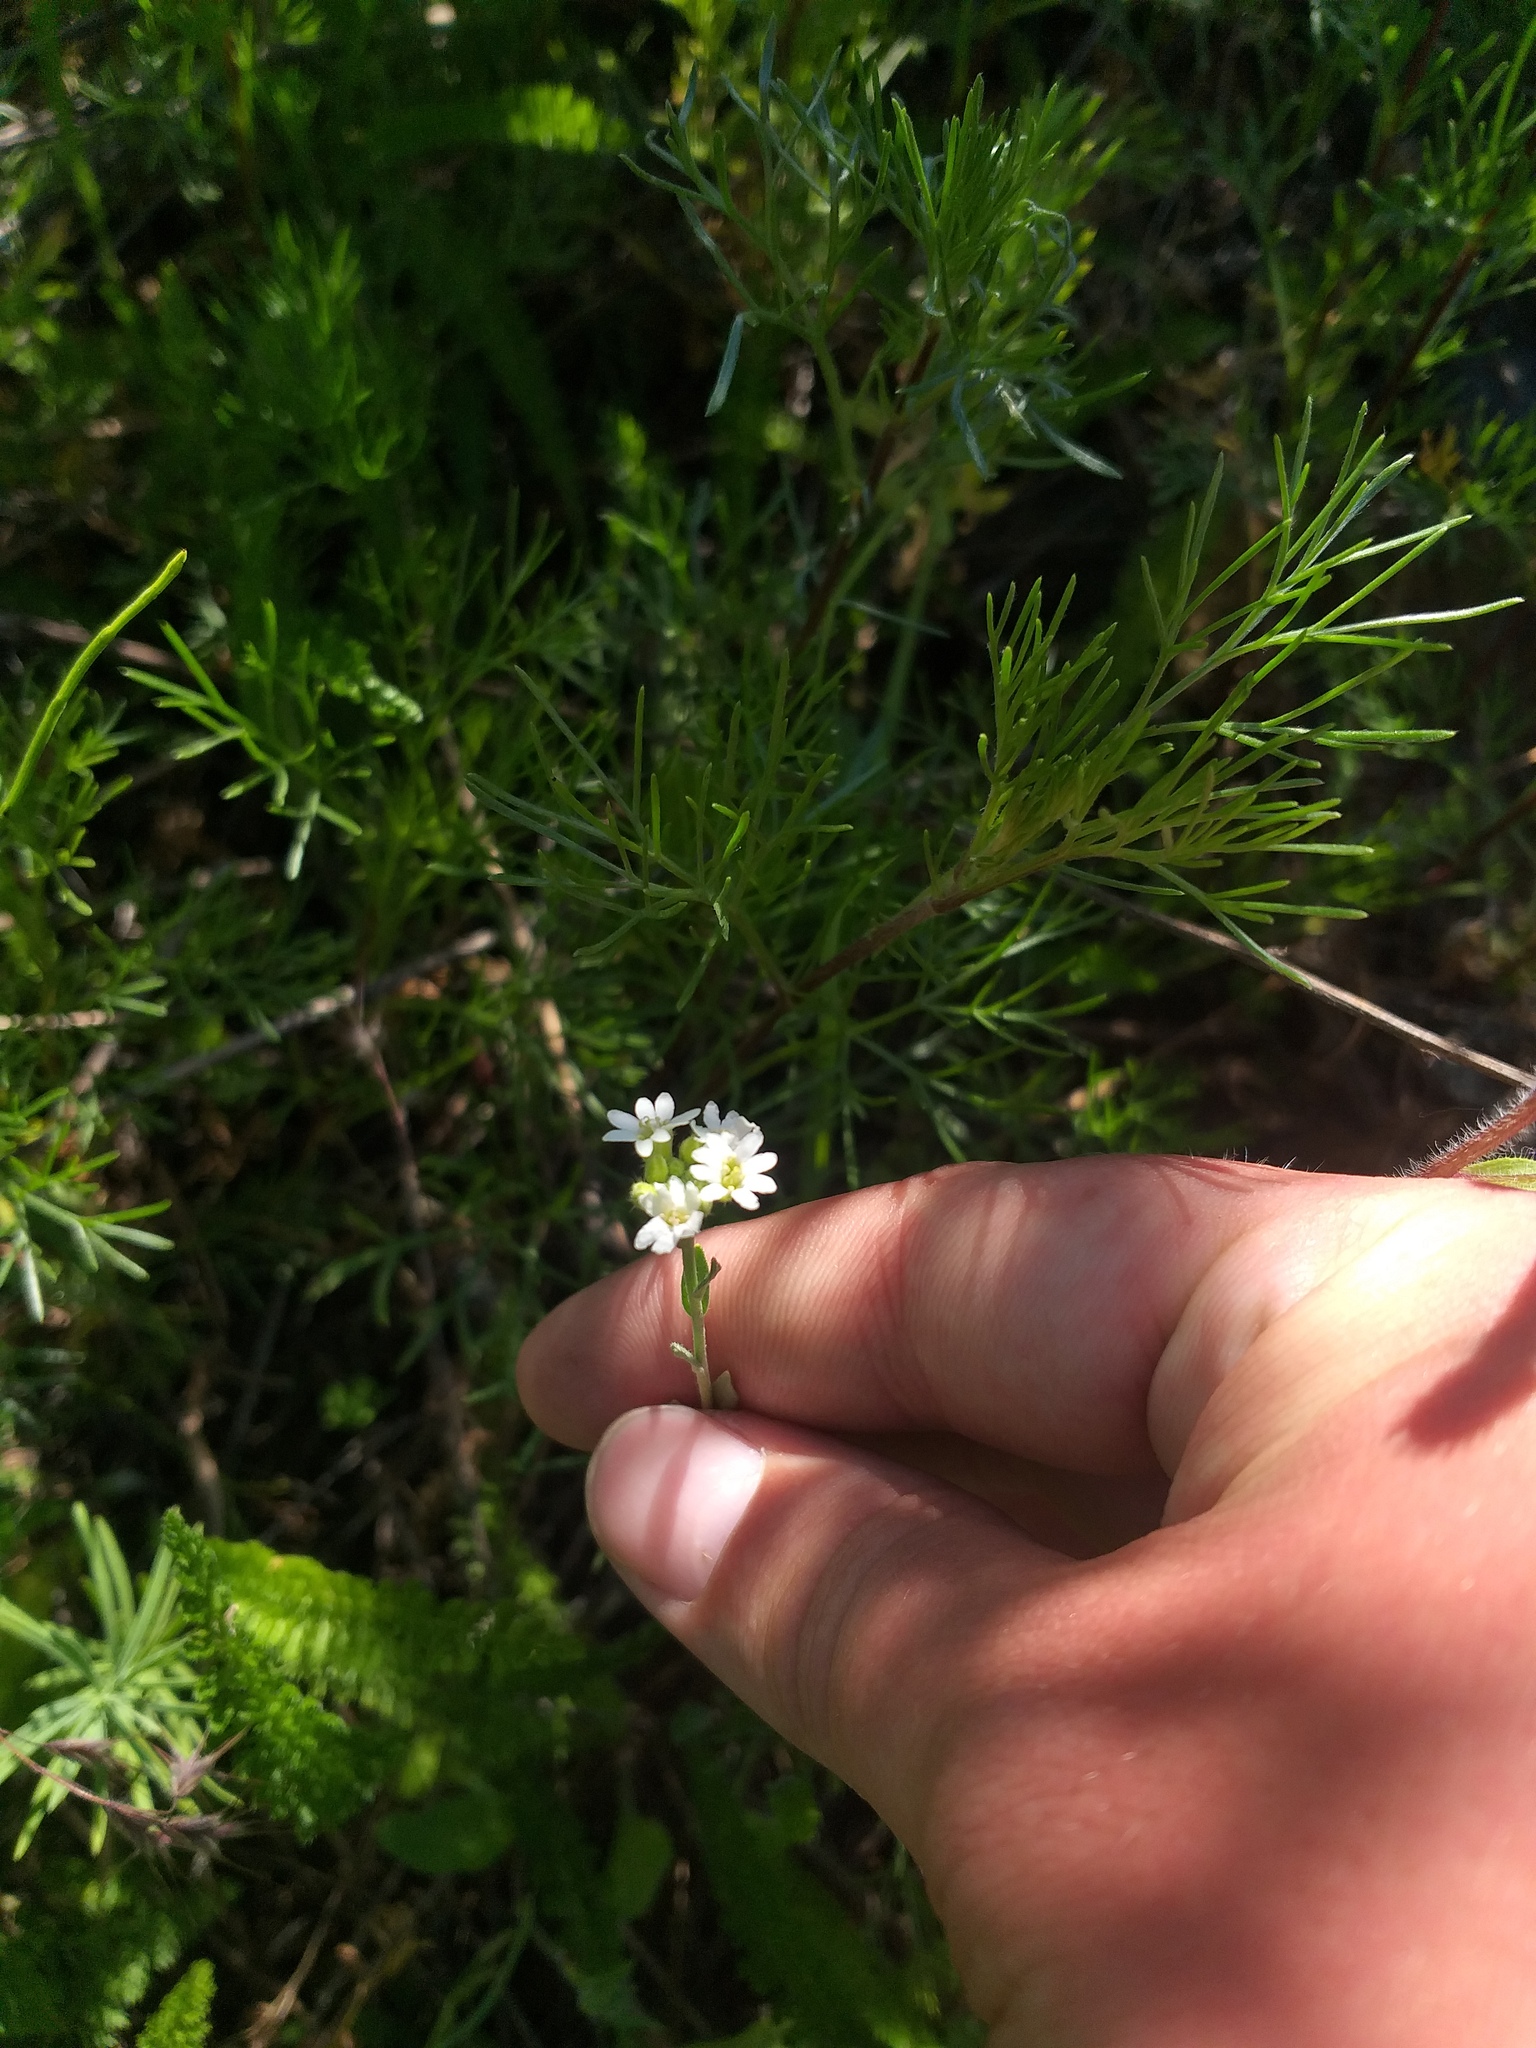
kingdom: Plantae
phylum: Tracheophyta
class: Magnoliopsida
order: Brassicales
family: Brassicaceae
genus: Berteroa
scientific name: Berteroa incana
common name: Hoary alison
